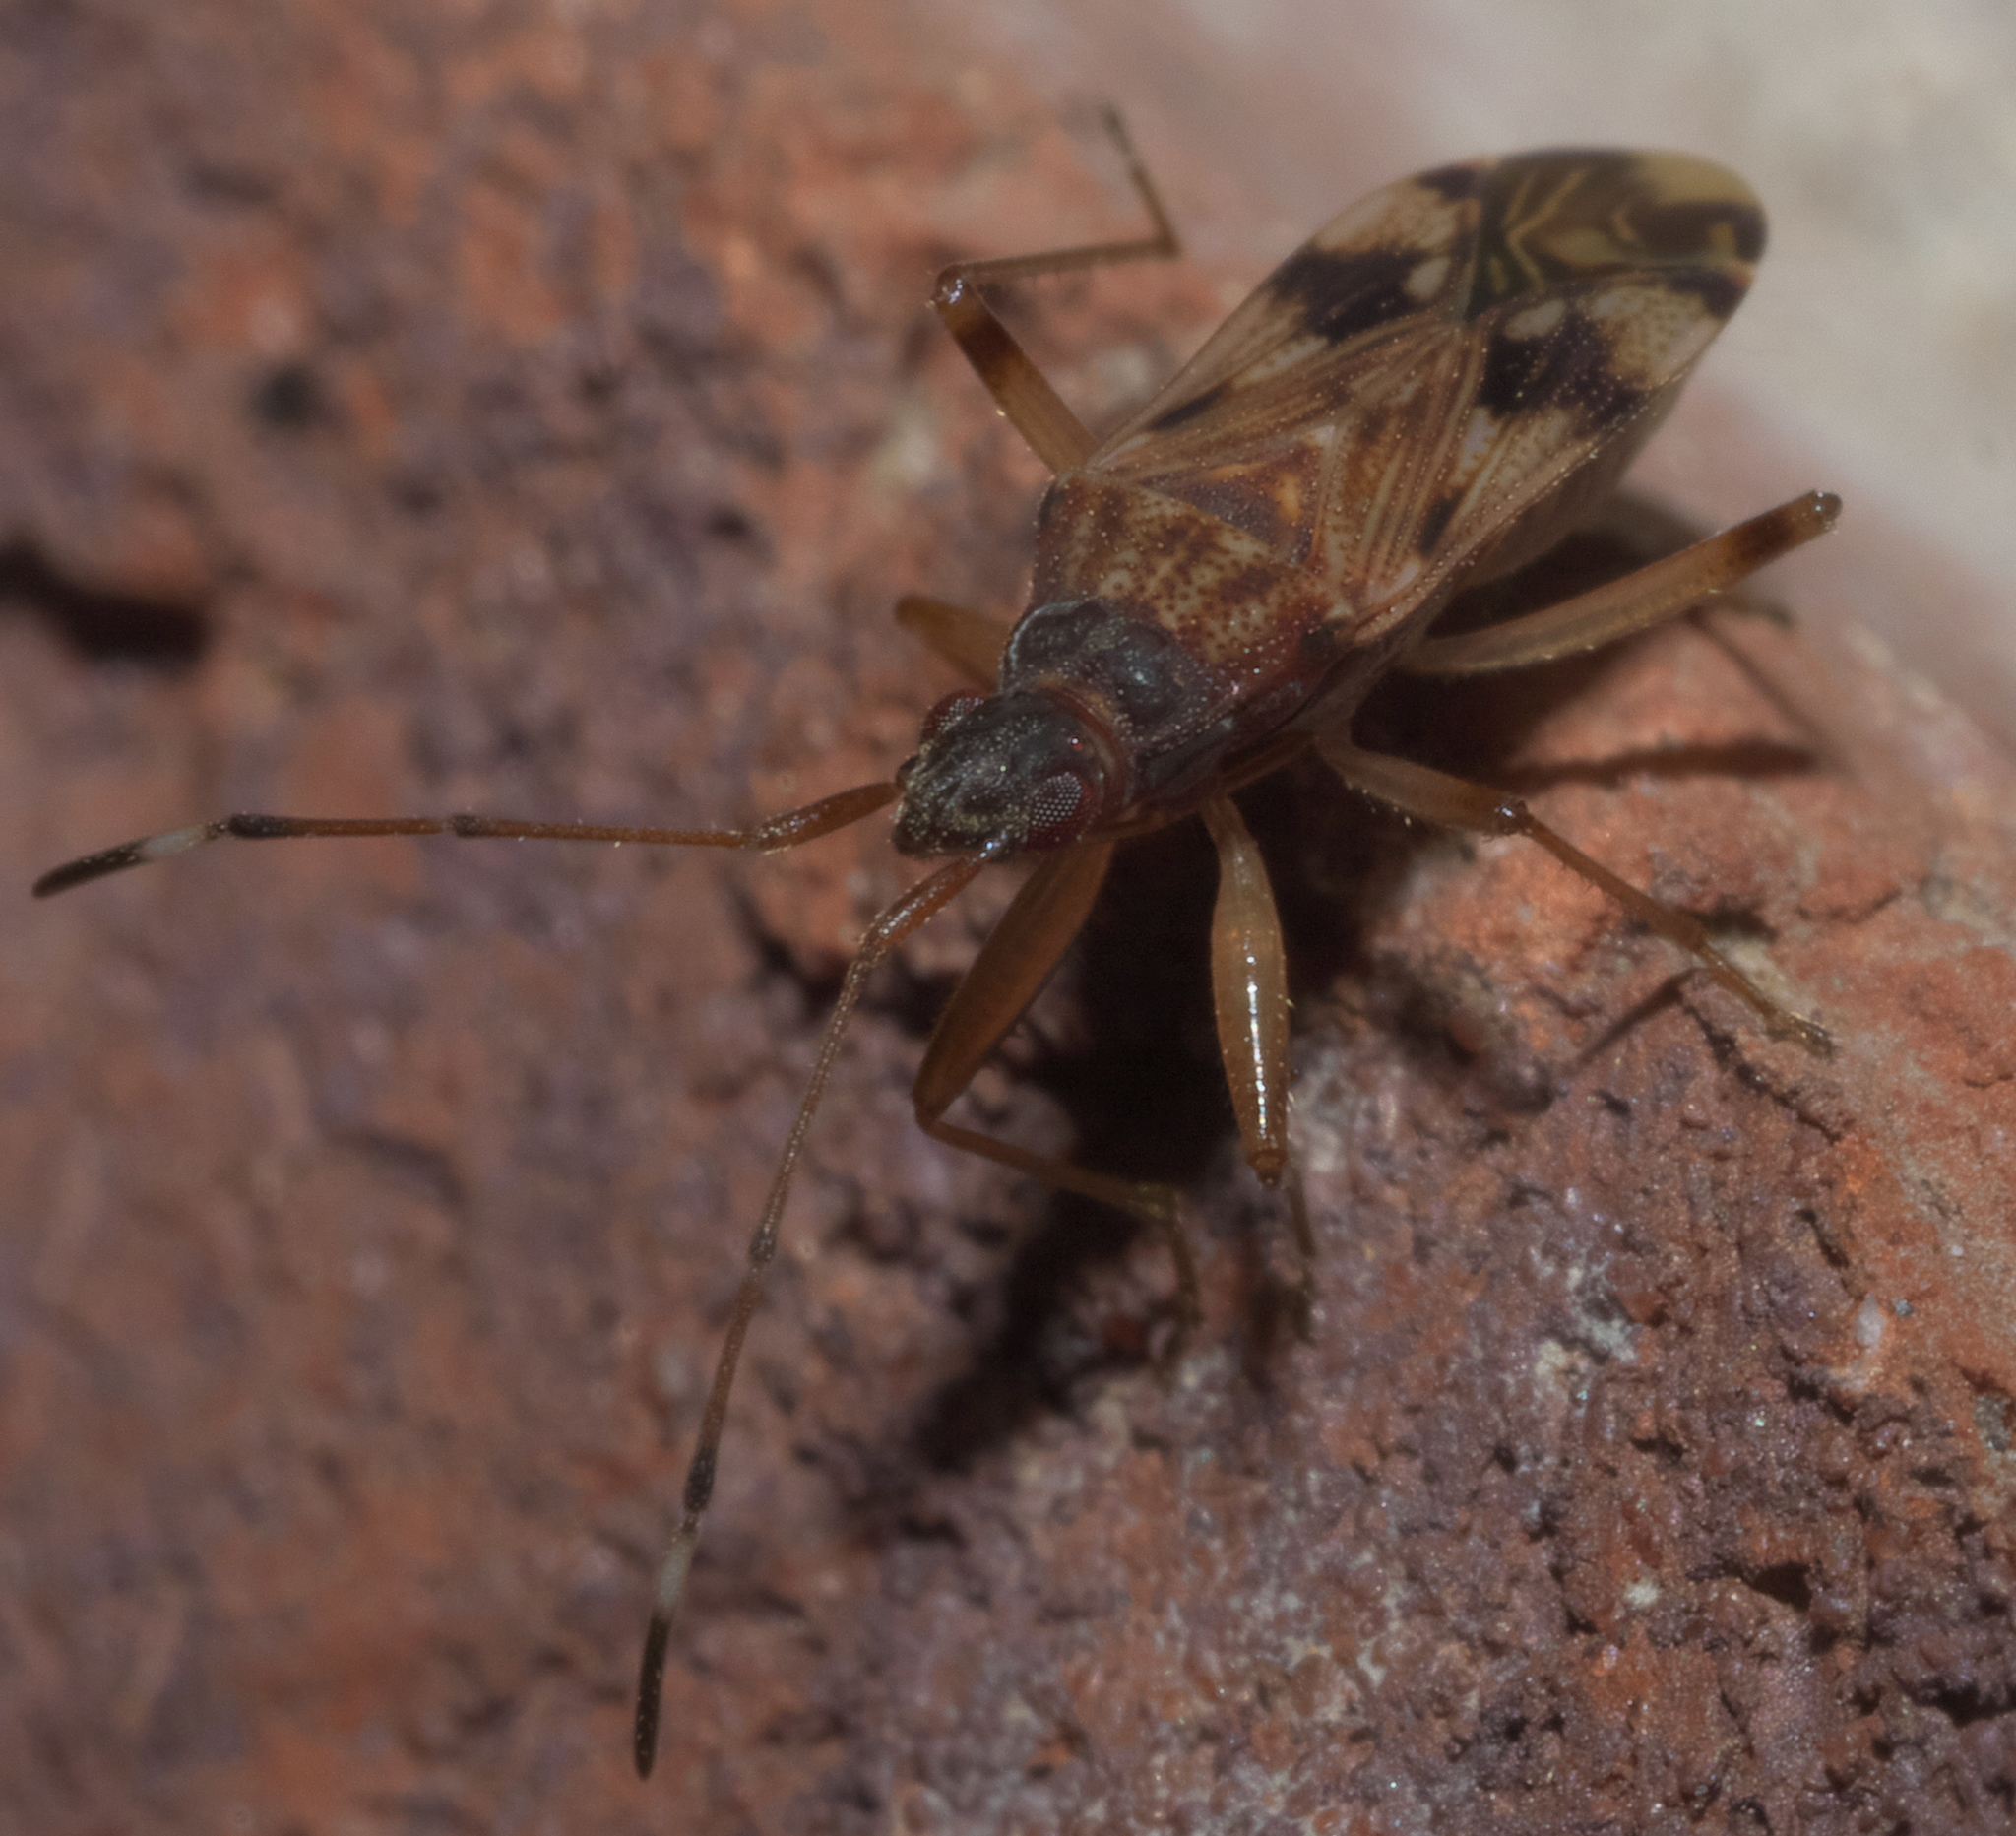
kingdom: Animalia
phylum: Arthropoda
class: Insecta
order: Hemiptera
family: Rhyparochromidae
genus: Ozophora
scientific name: Ozophora picturata
